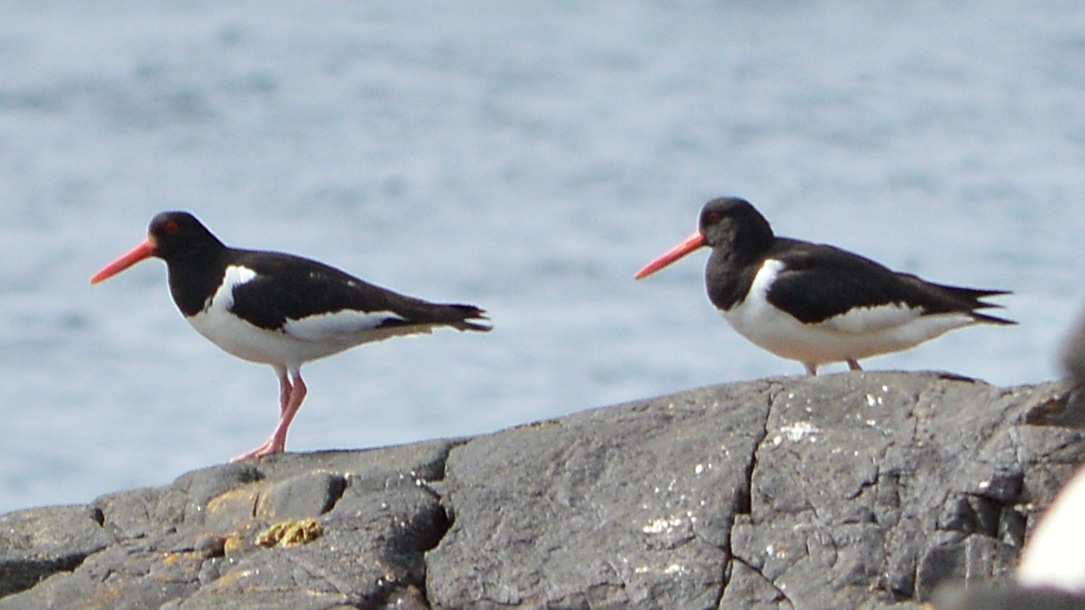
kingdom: Animalia
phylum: Chordata
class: Aves
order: Charadriiformes
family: Haematopodidae
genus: Haematopus
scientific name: Haematopus ostralegus
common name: Eurasian oystercatcher
